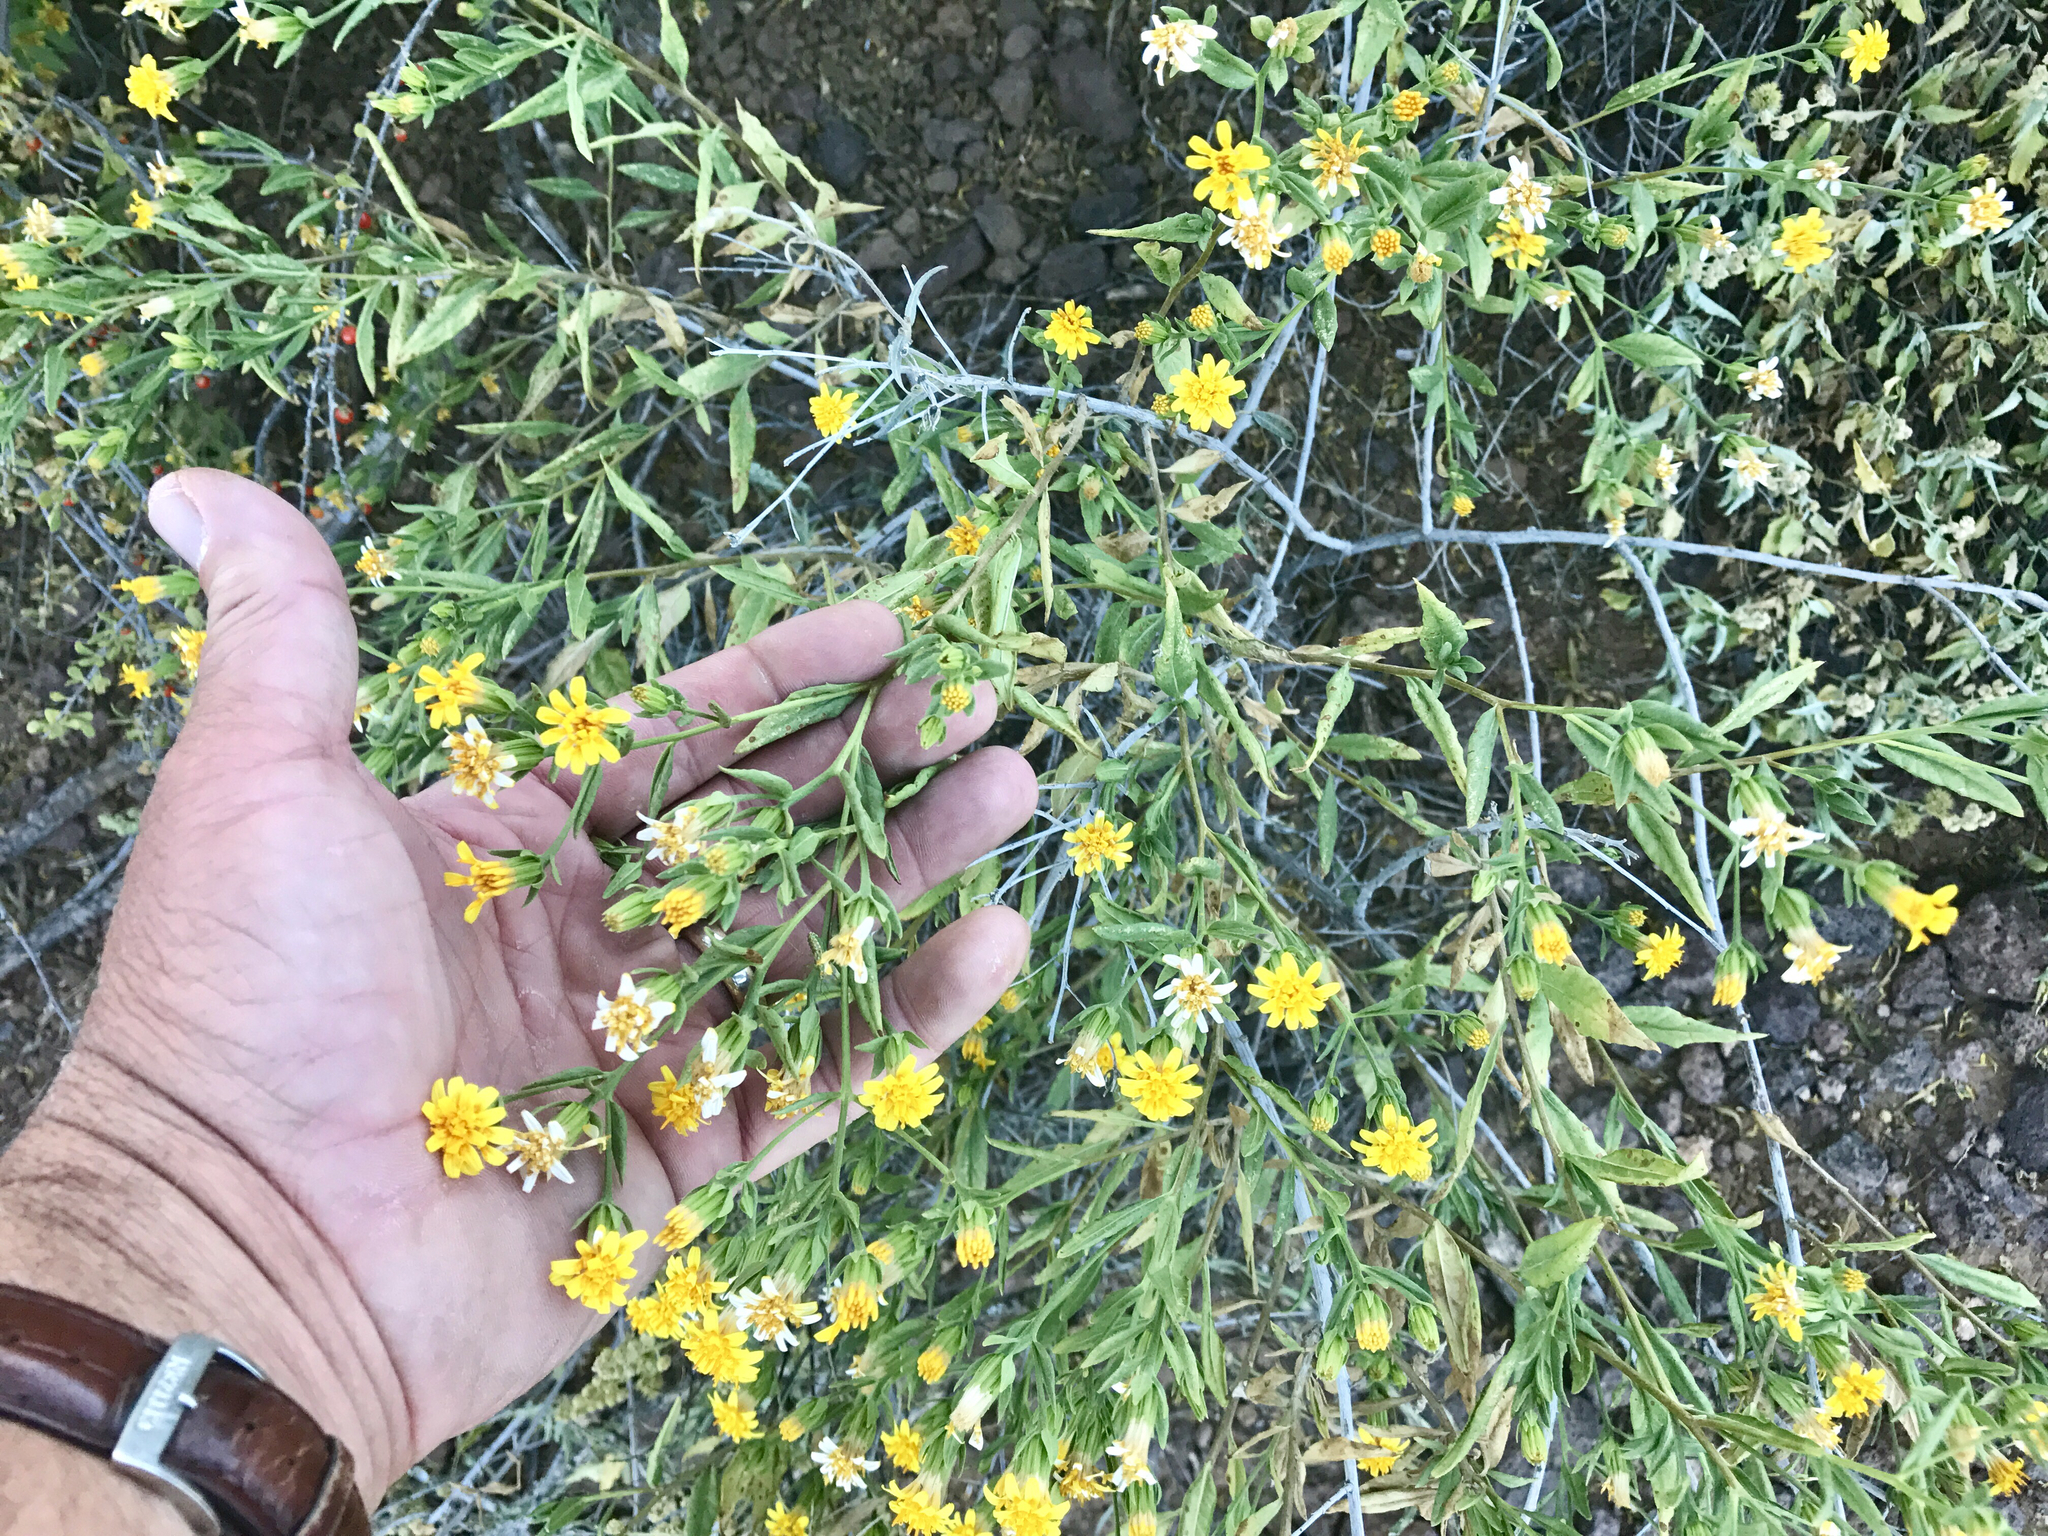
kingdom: Plantae
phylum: Tracheophyta
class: Magnoliopsida
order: Asterales
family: Asteraceae
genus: Trixis
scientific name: Trixis californica
